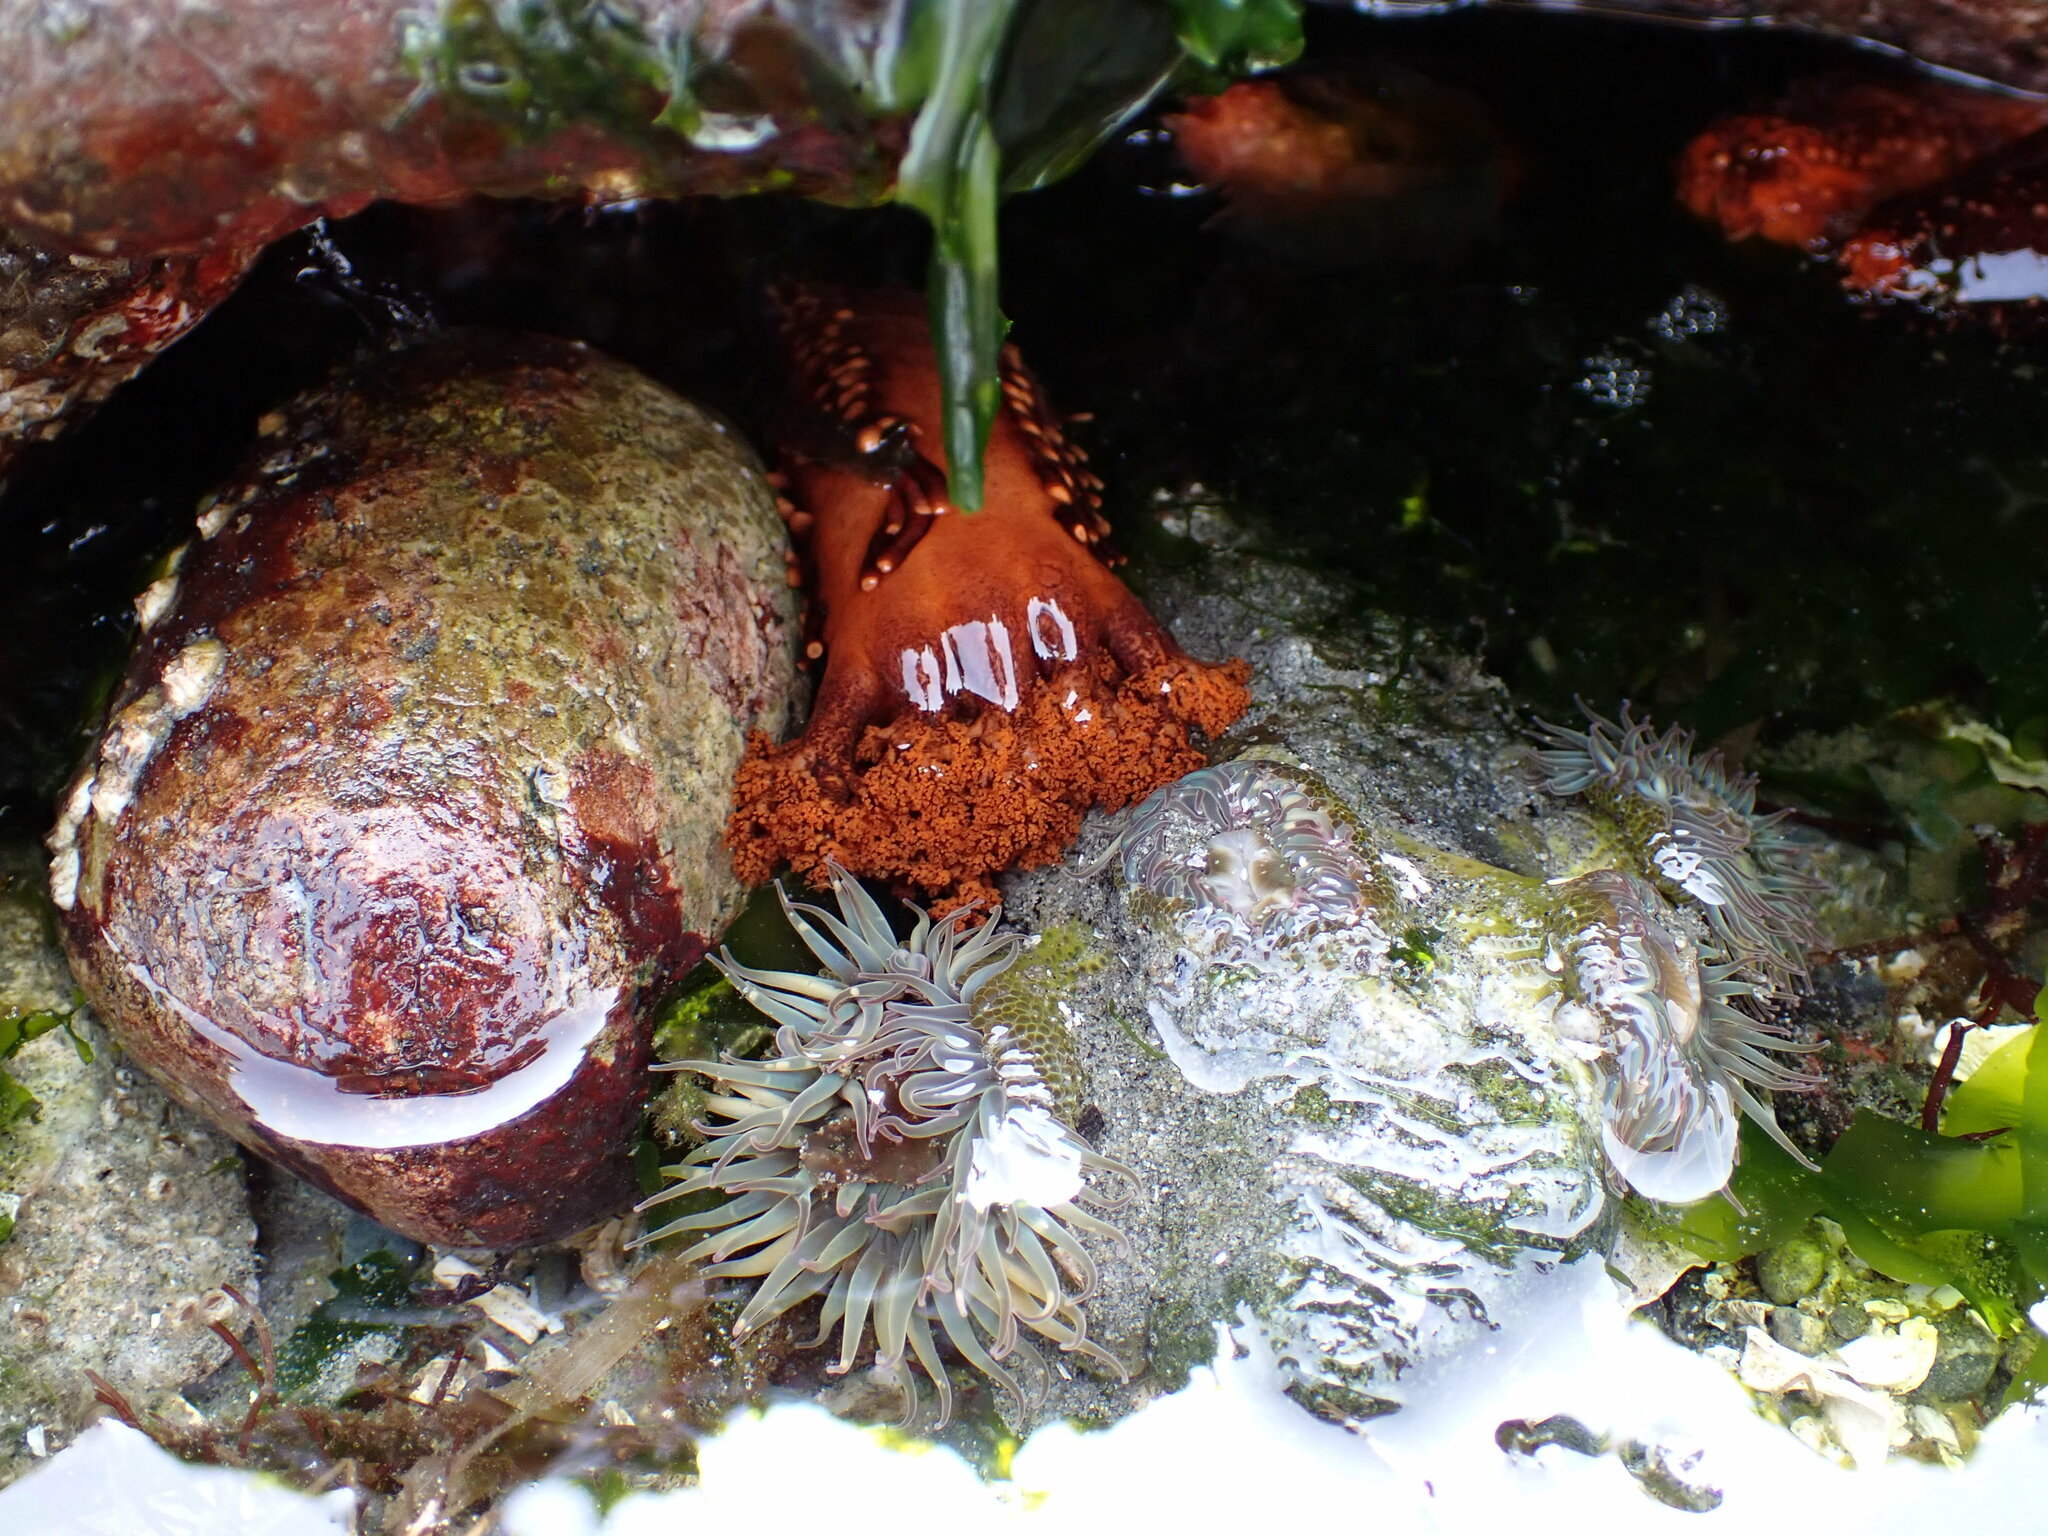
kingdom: Animalia
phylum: Echinodermata
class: Holothuroidea
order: Dendrochirotida
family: Cucumariidae
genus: Cucumaria
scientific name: Cucumaria miniata
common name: Orange sea cucumber
